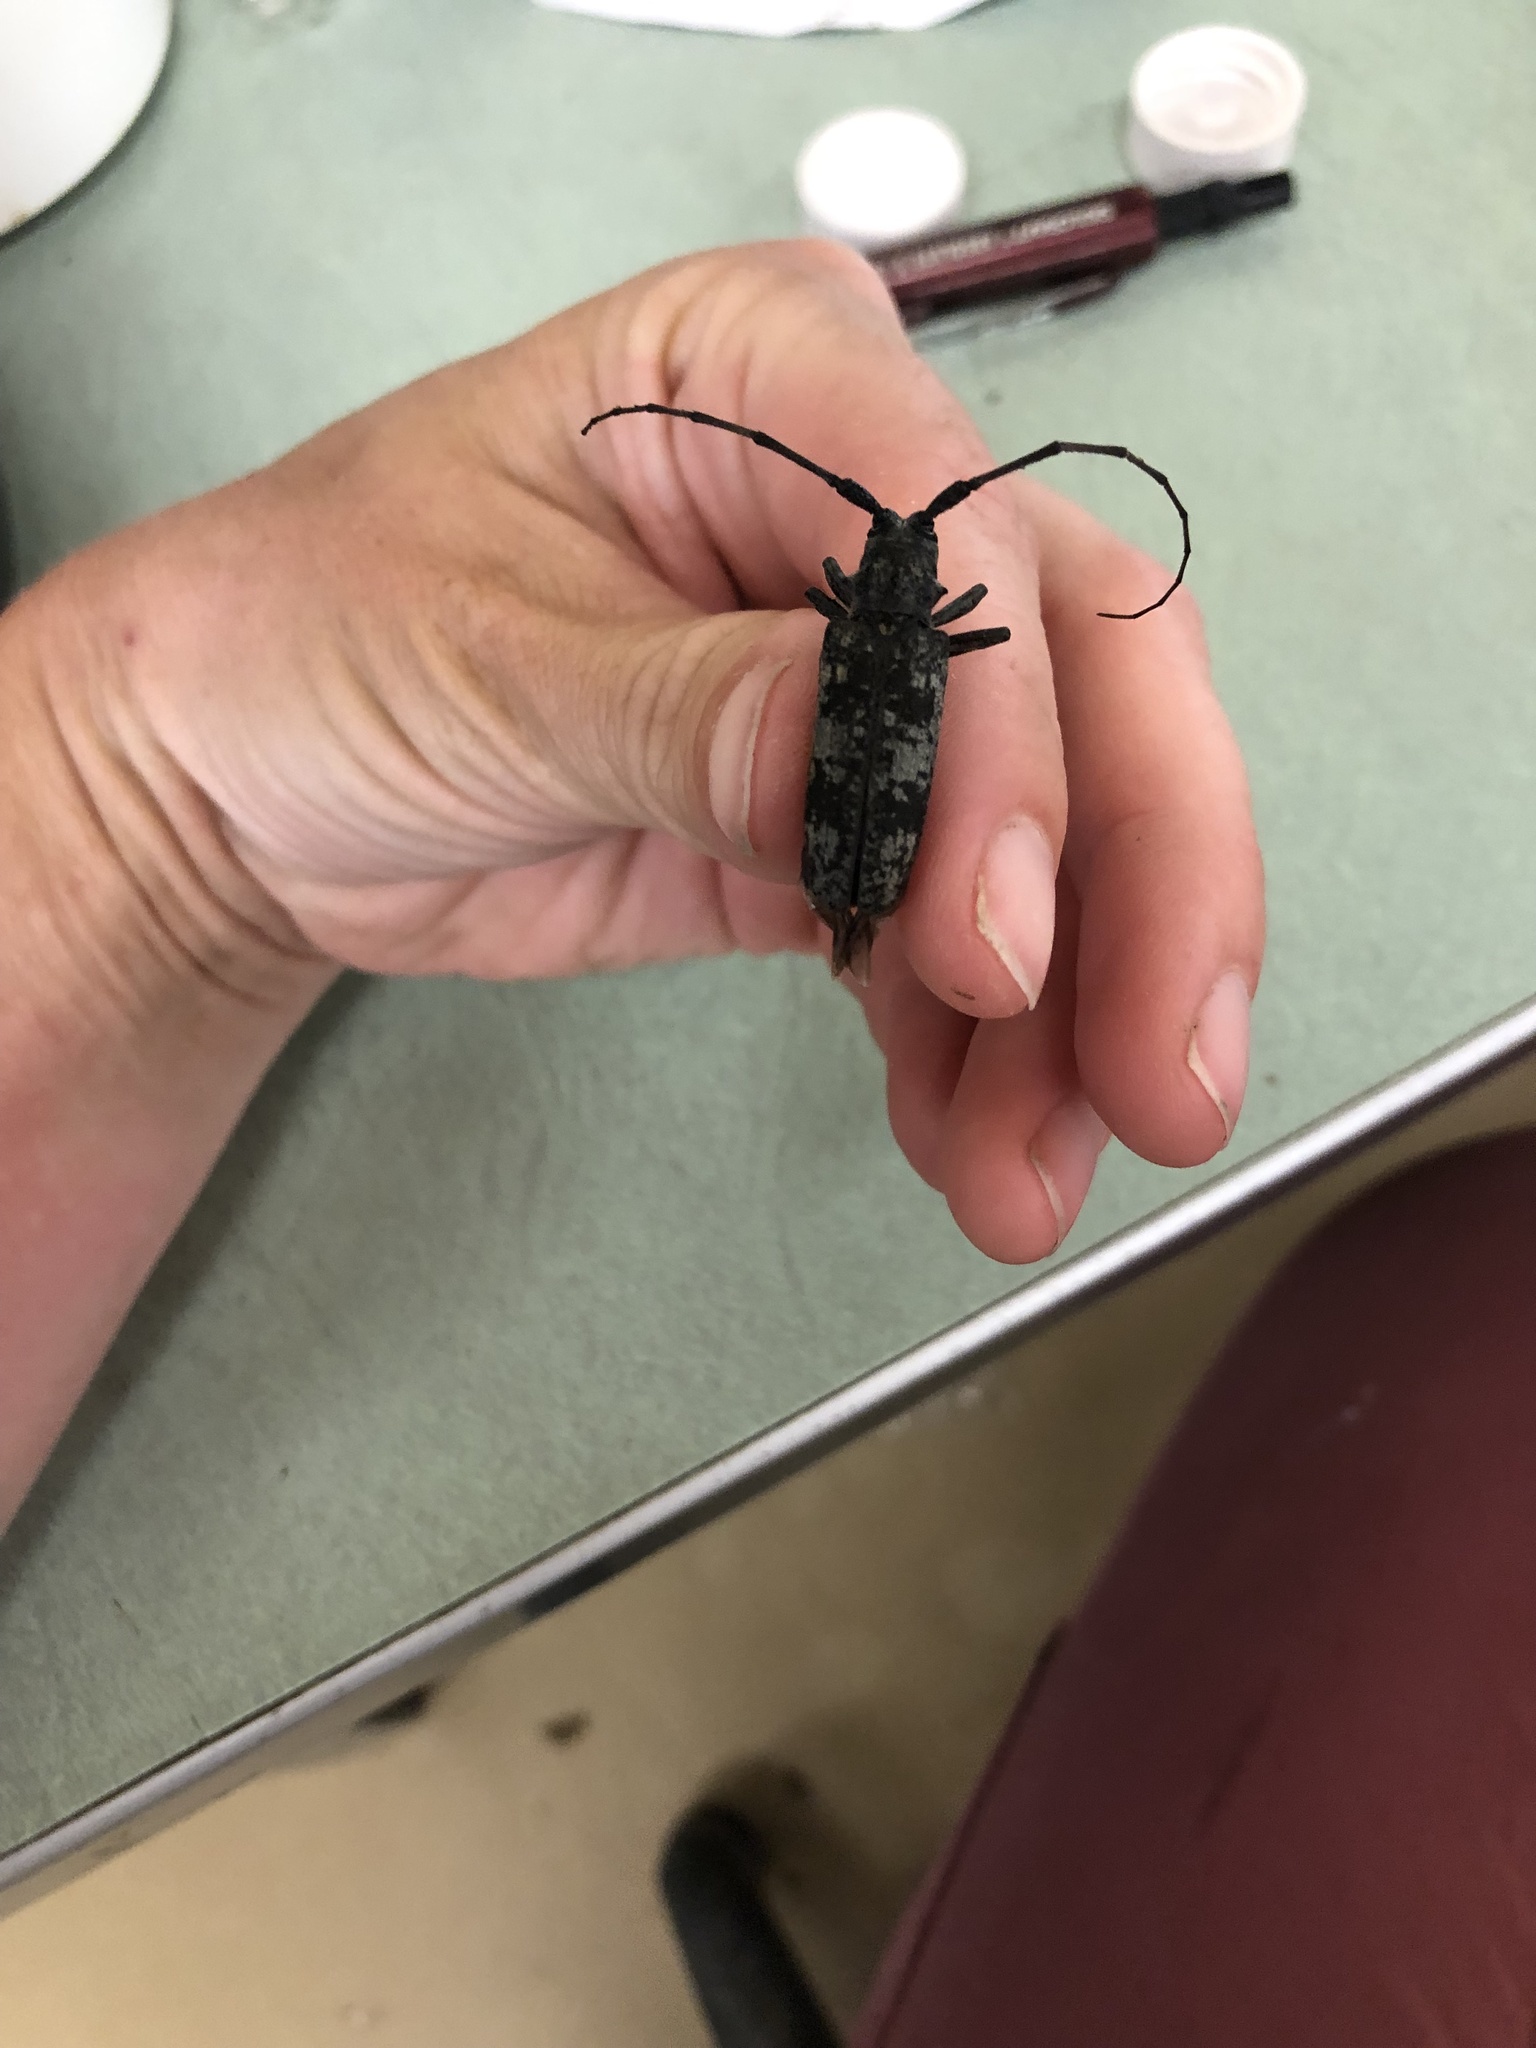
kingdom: Animalia
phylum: Arthropoda
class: Insecta
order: Coleoptera
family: Cerambycidae
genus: Goes
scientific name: Goes tigrinus
